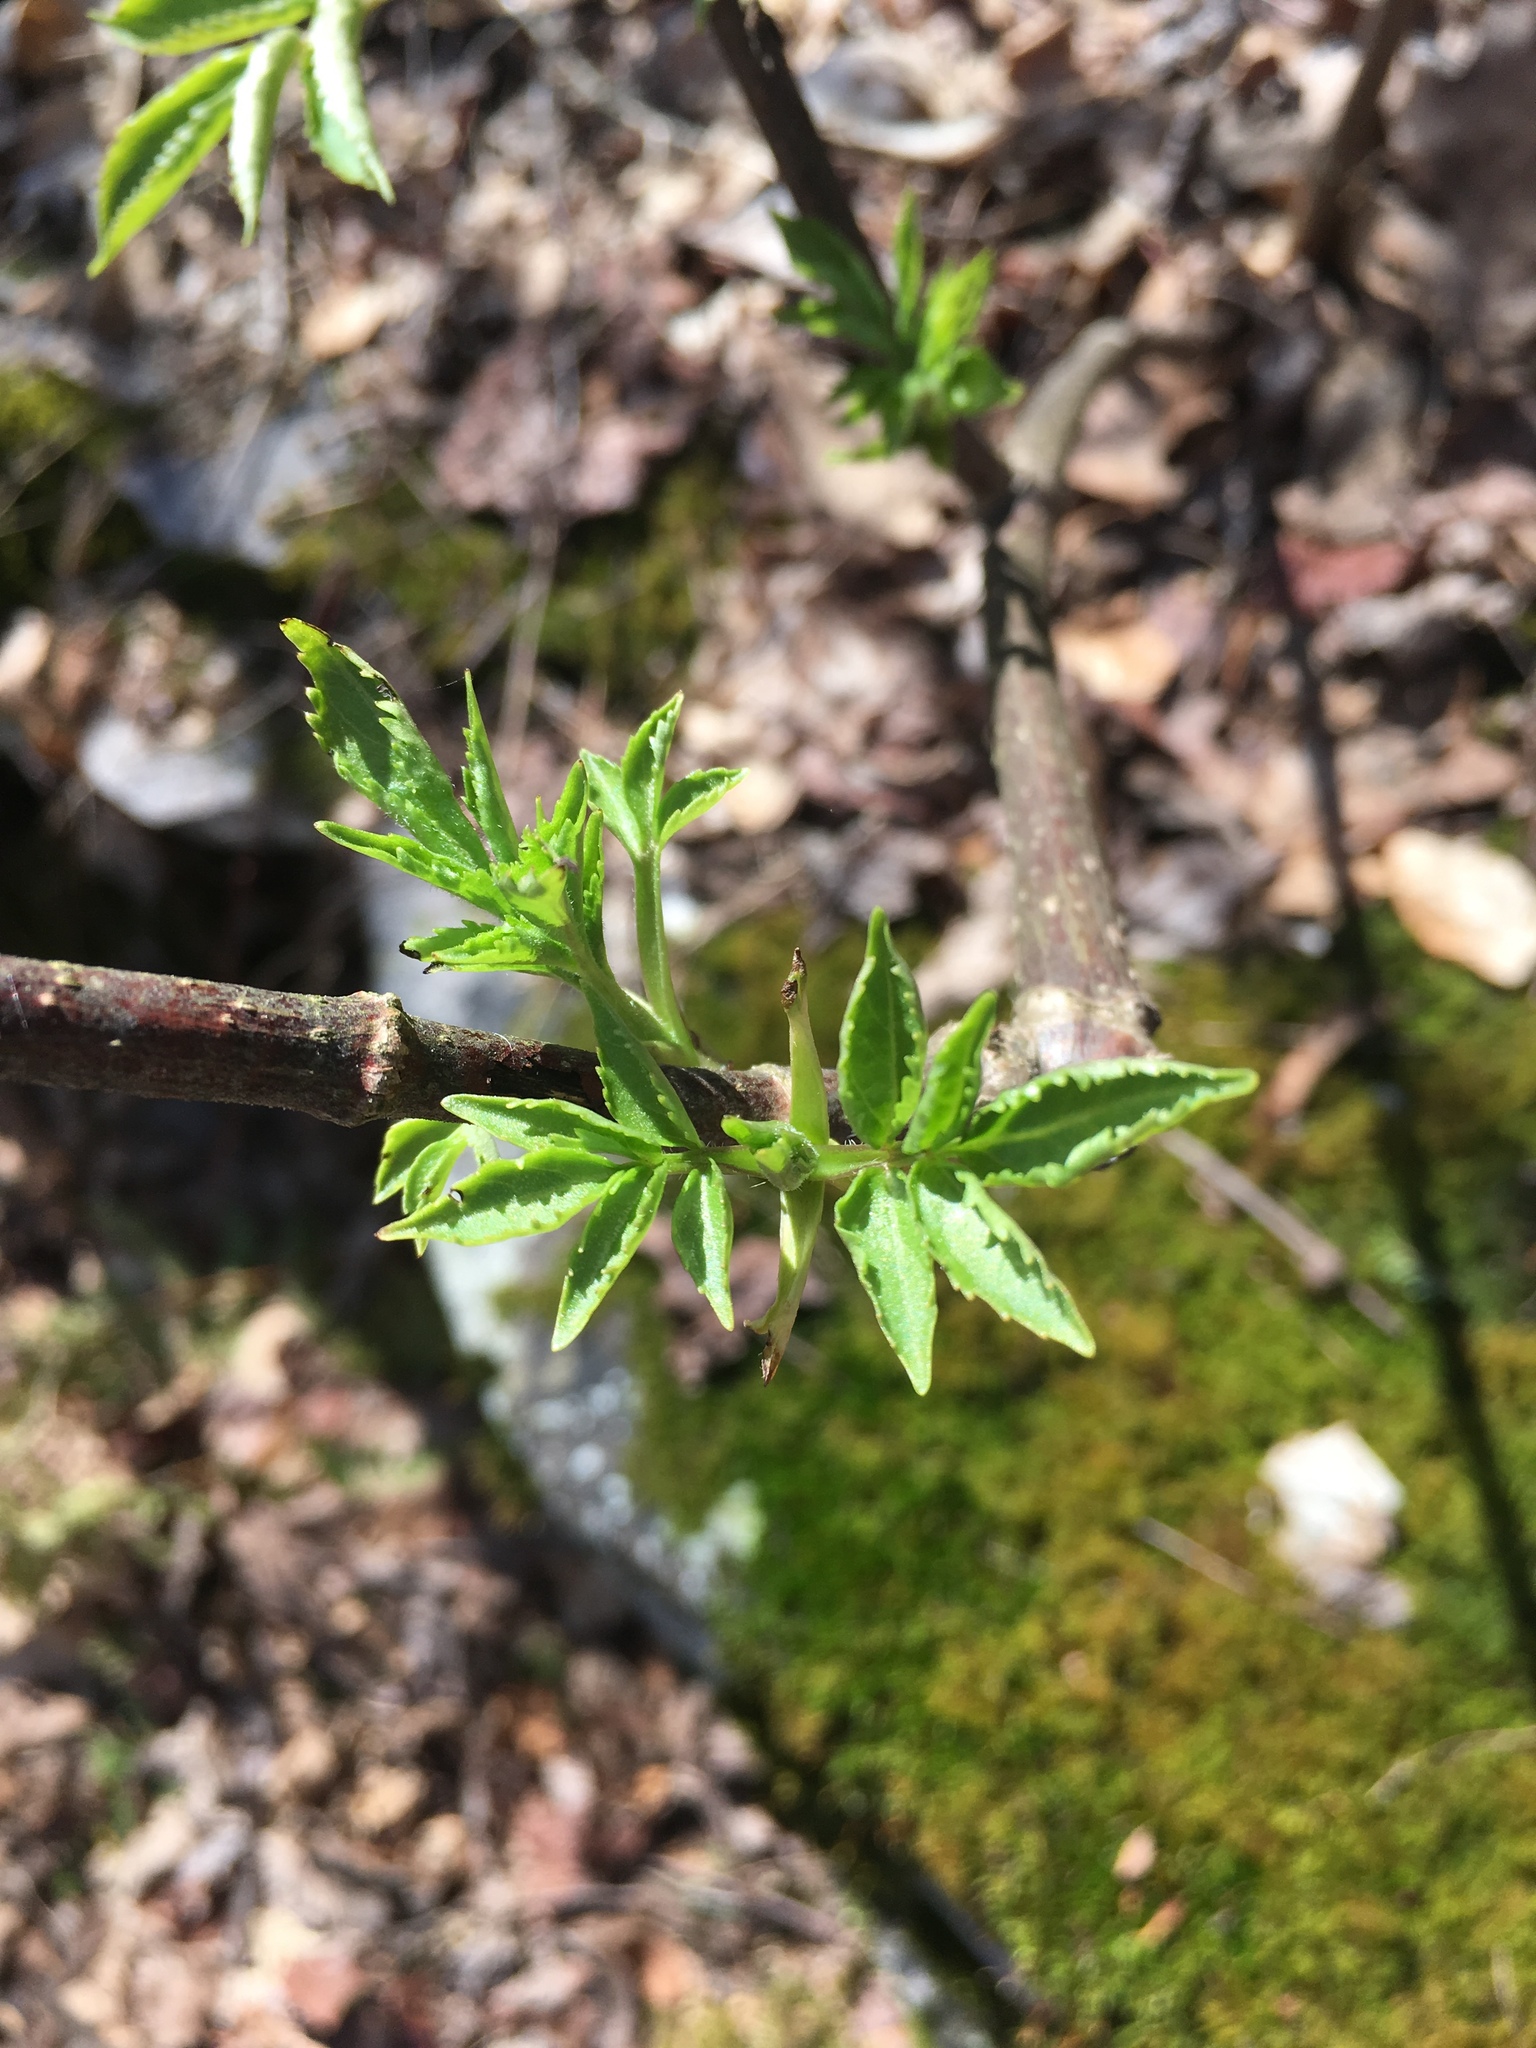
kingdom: Plantae
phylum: Tracheophyta
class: Magnoliopsida
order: Dipsacales
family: Viburnaceae
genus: Sambucus
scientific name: Sambucus
